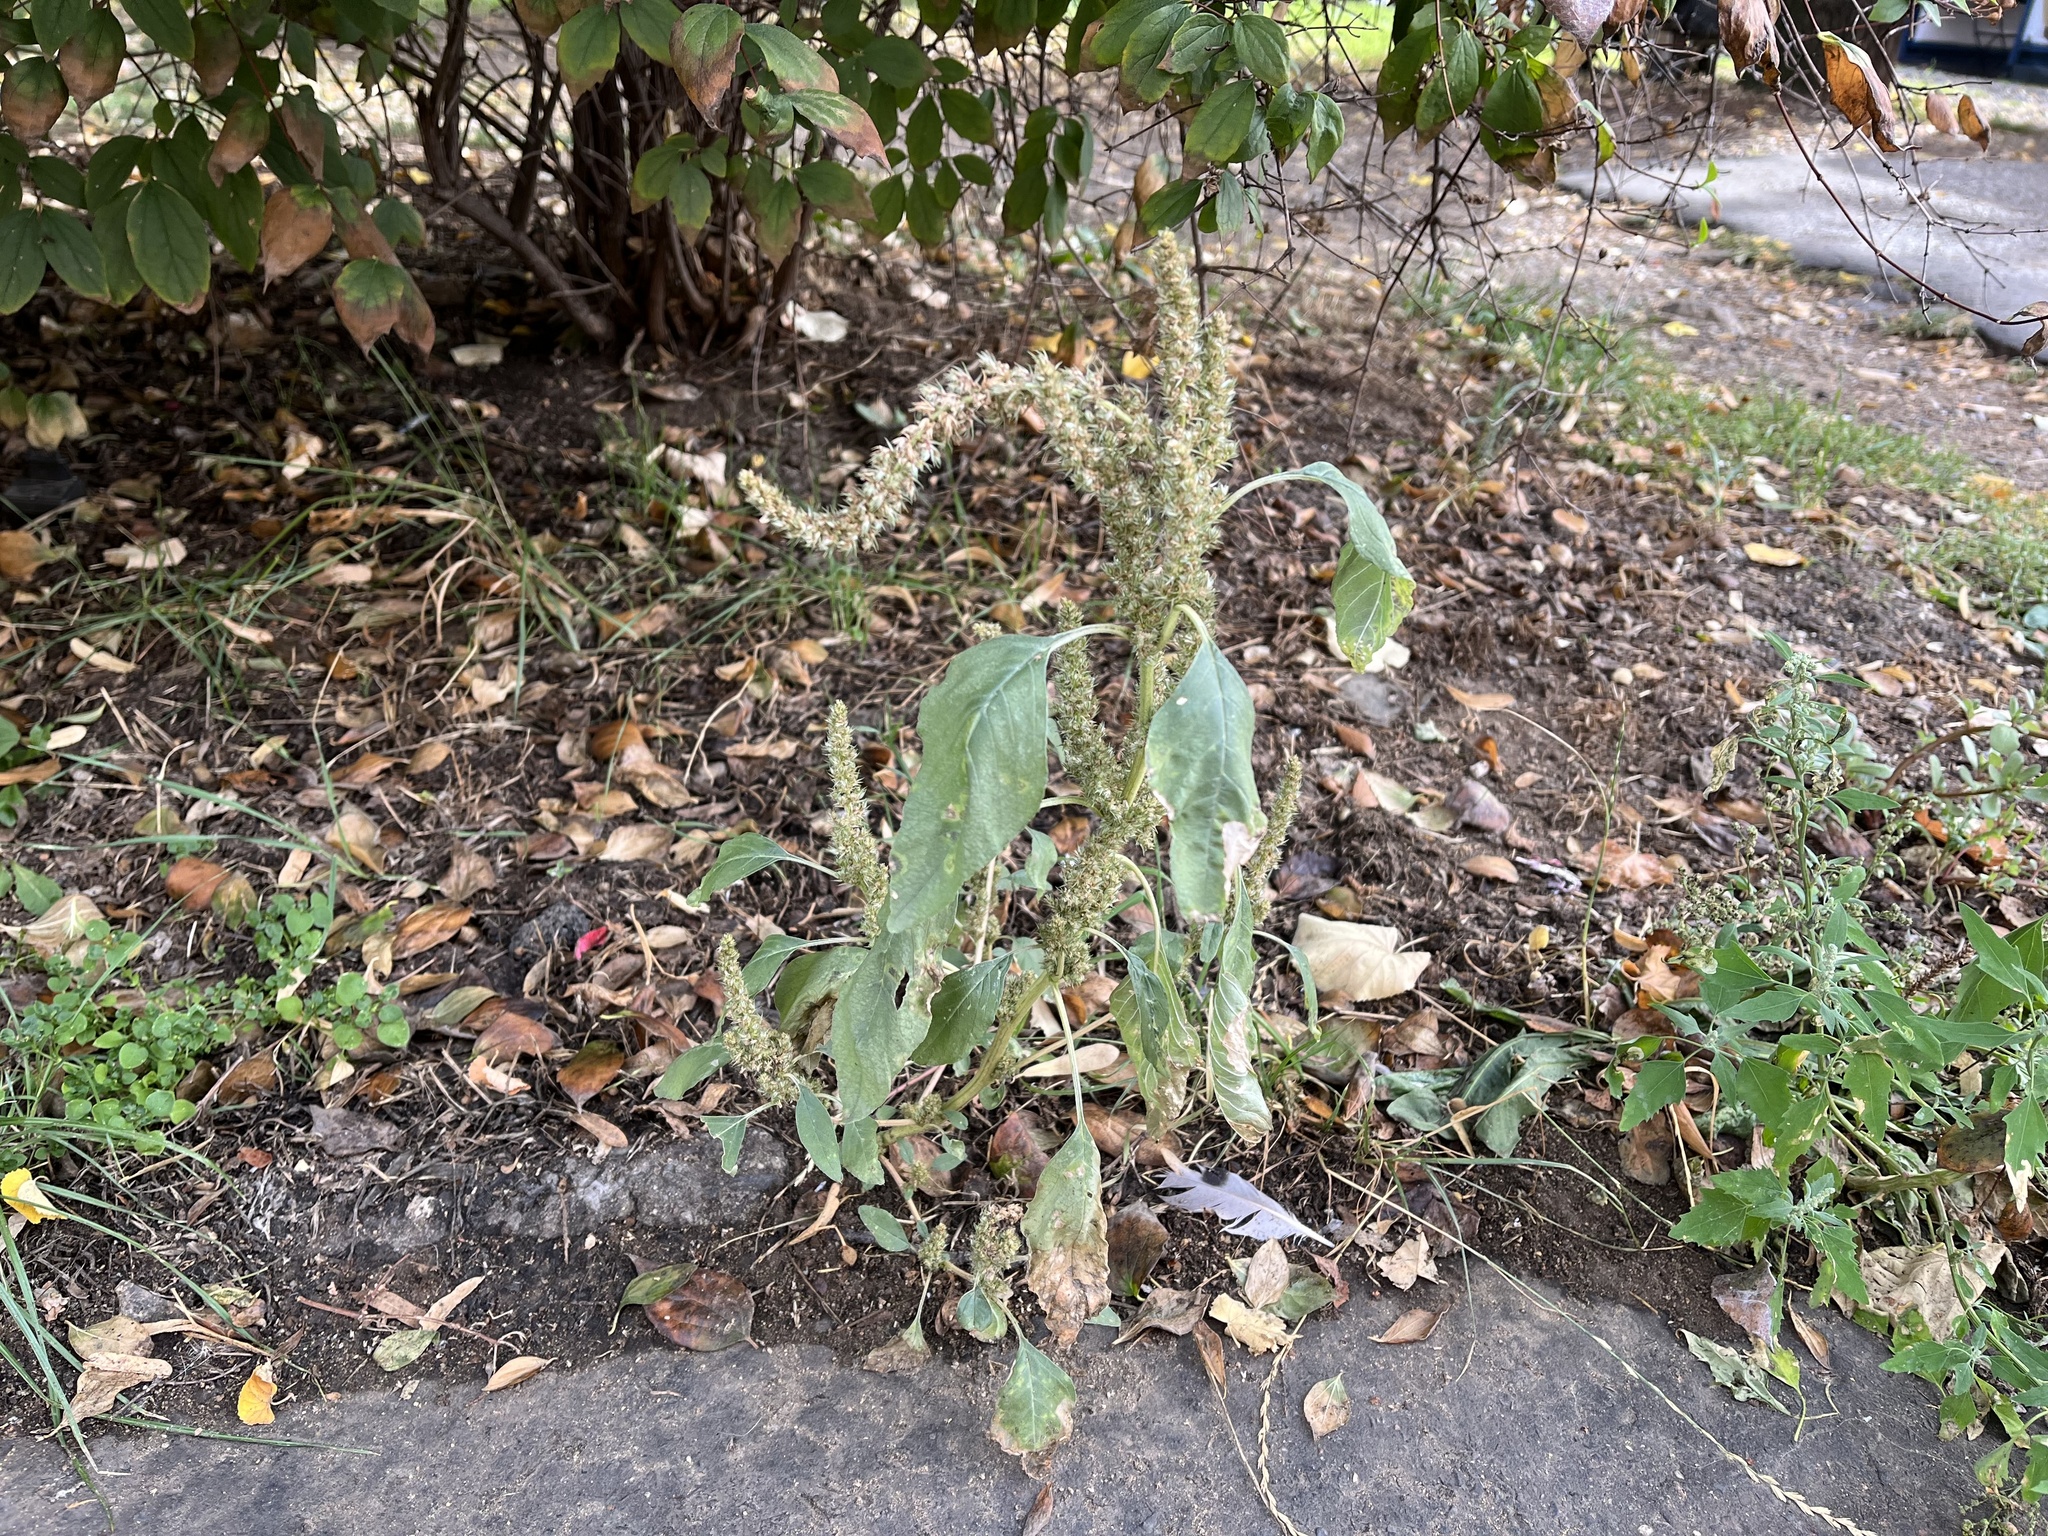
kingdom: Plantae
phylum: Tracheophyta
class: Magnoliopsida
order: Caryophyllales
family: Amaranthaceae
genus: Amaranthus
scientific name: Amaranthus retroflexus
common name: Redroot amaranth
